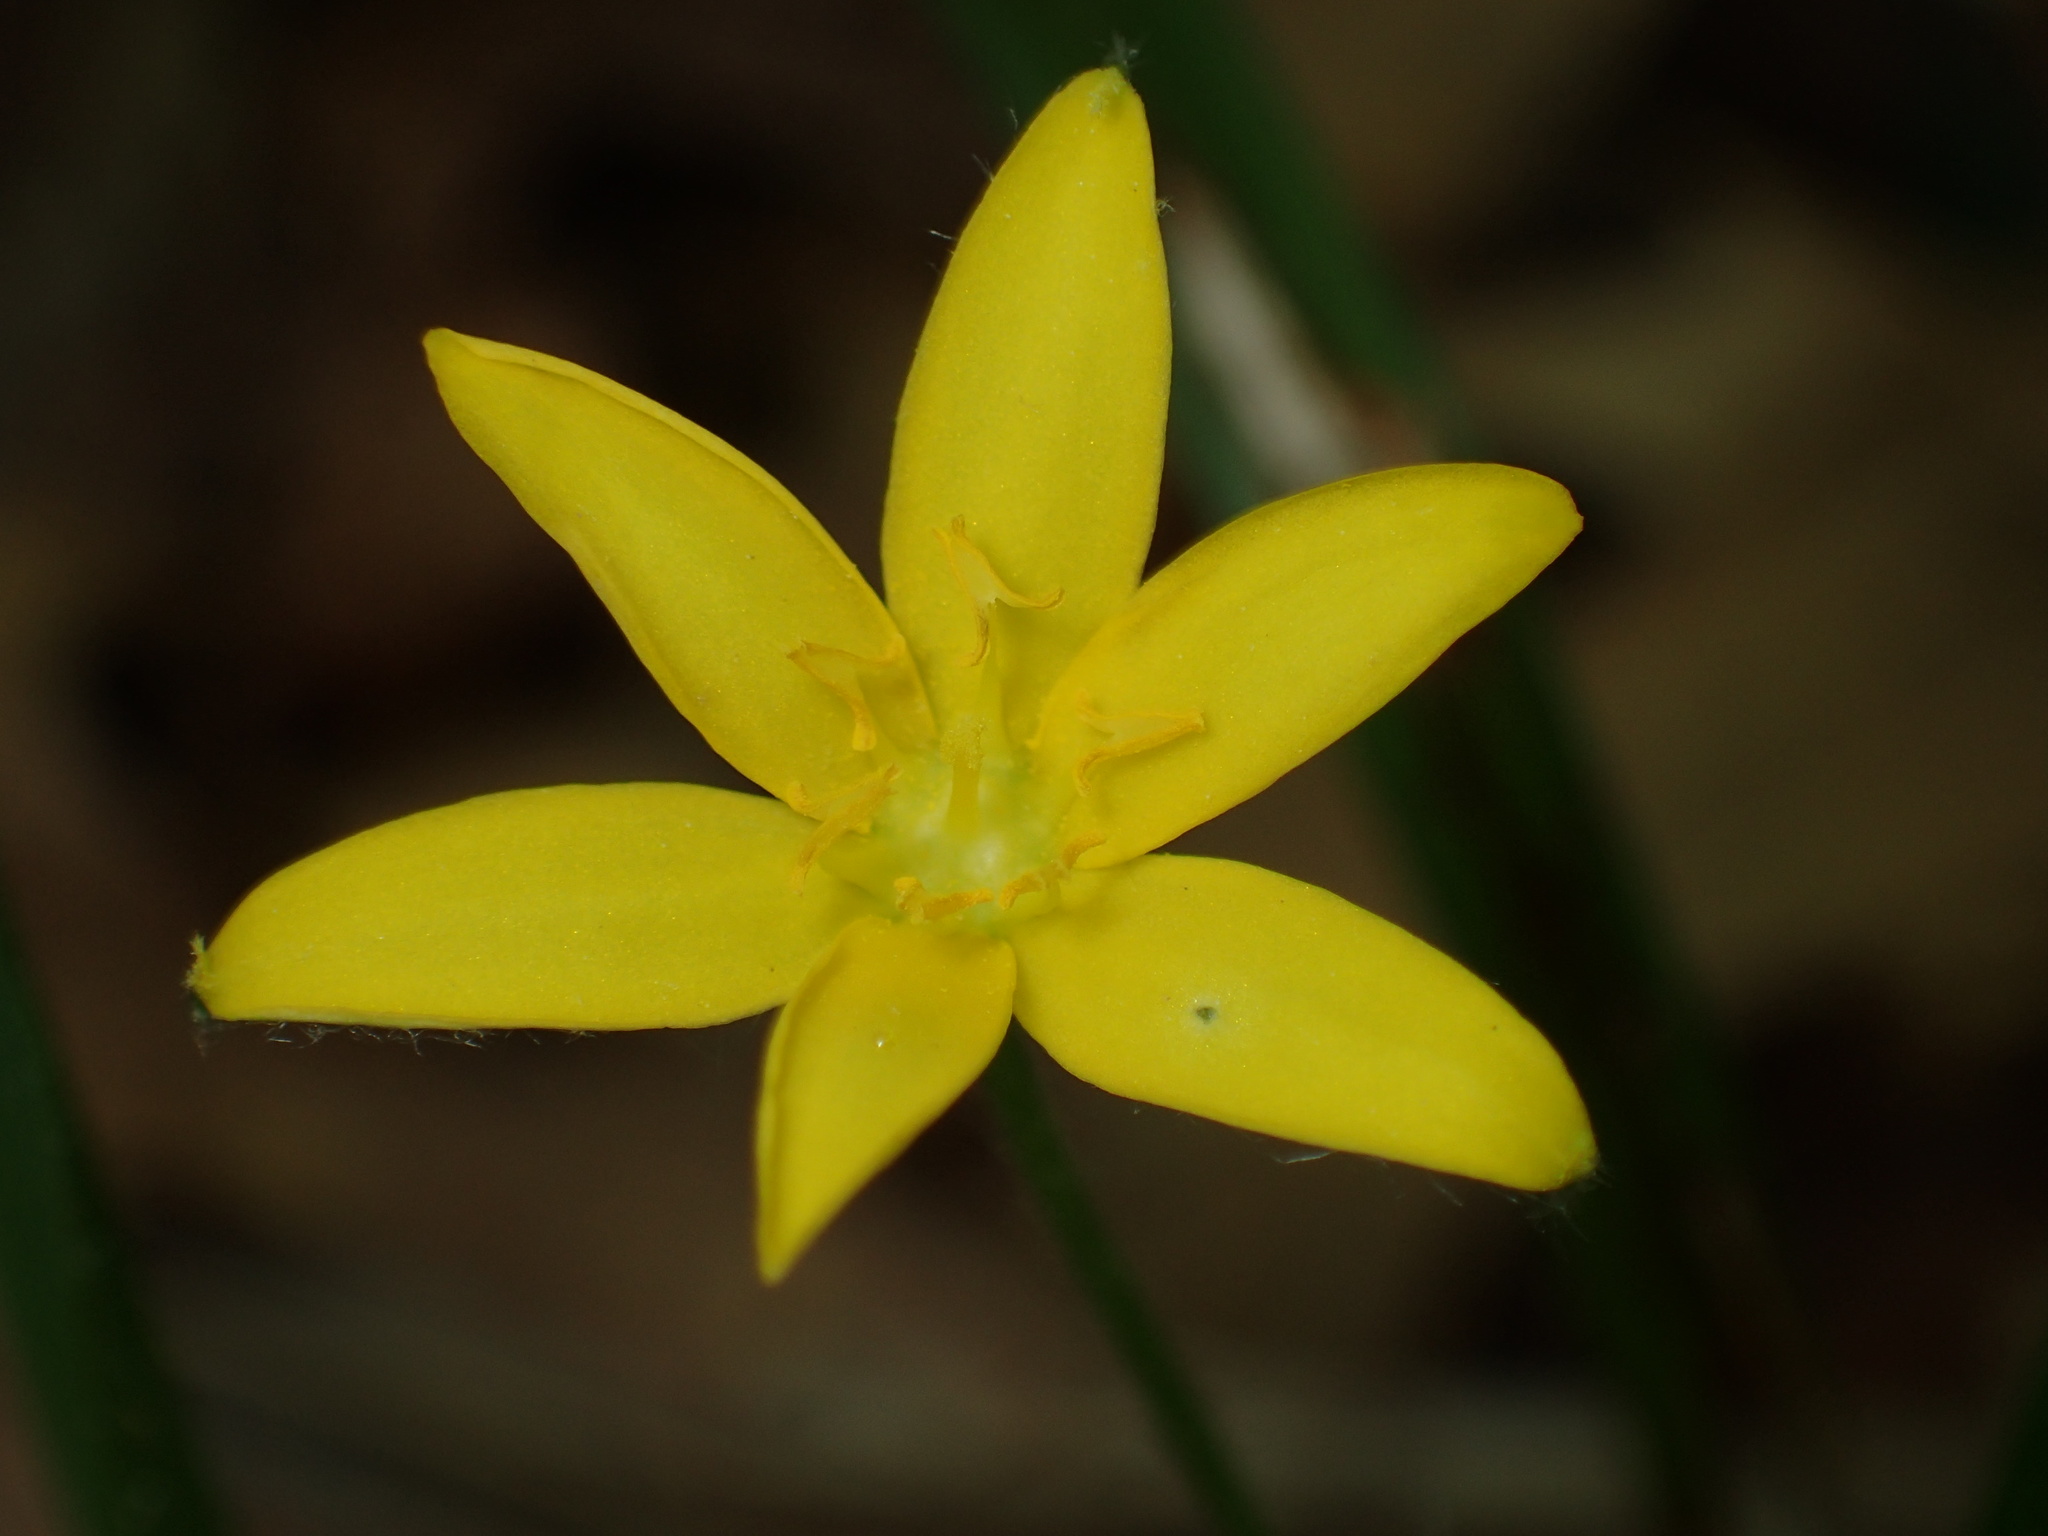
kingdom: Plantae
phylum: Tracheophyta
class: Liliopsida
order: Asparagales
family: Hypoxidaceae
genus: Hypoxis
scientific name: Hypoxis hirsuta
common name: Common goldstar
